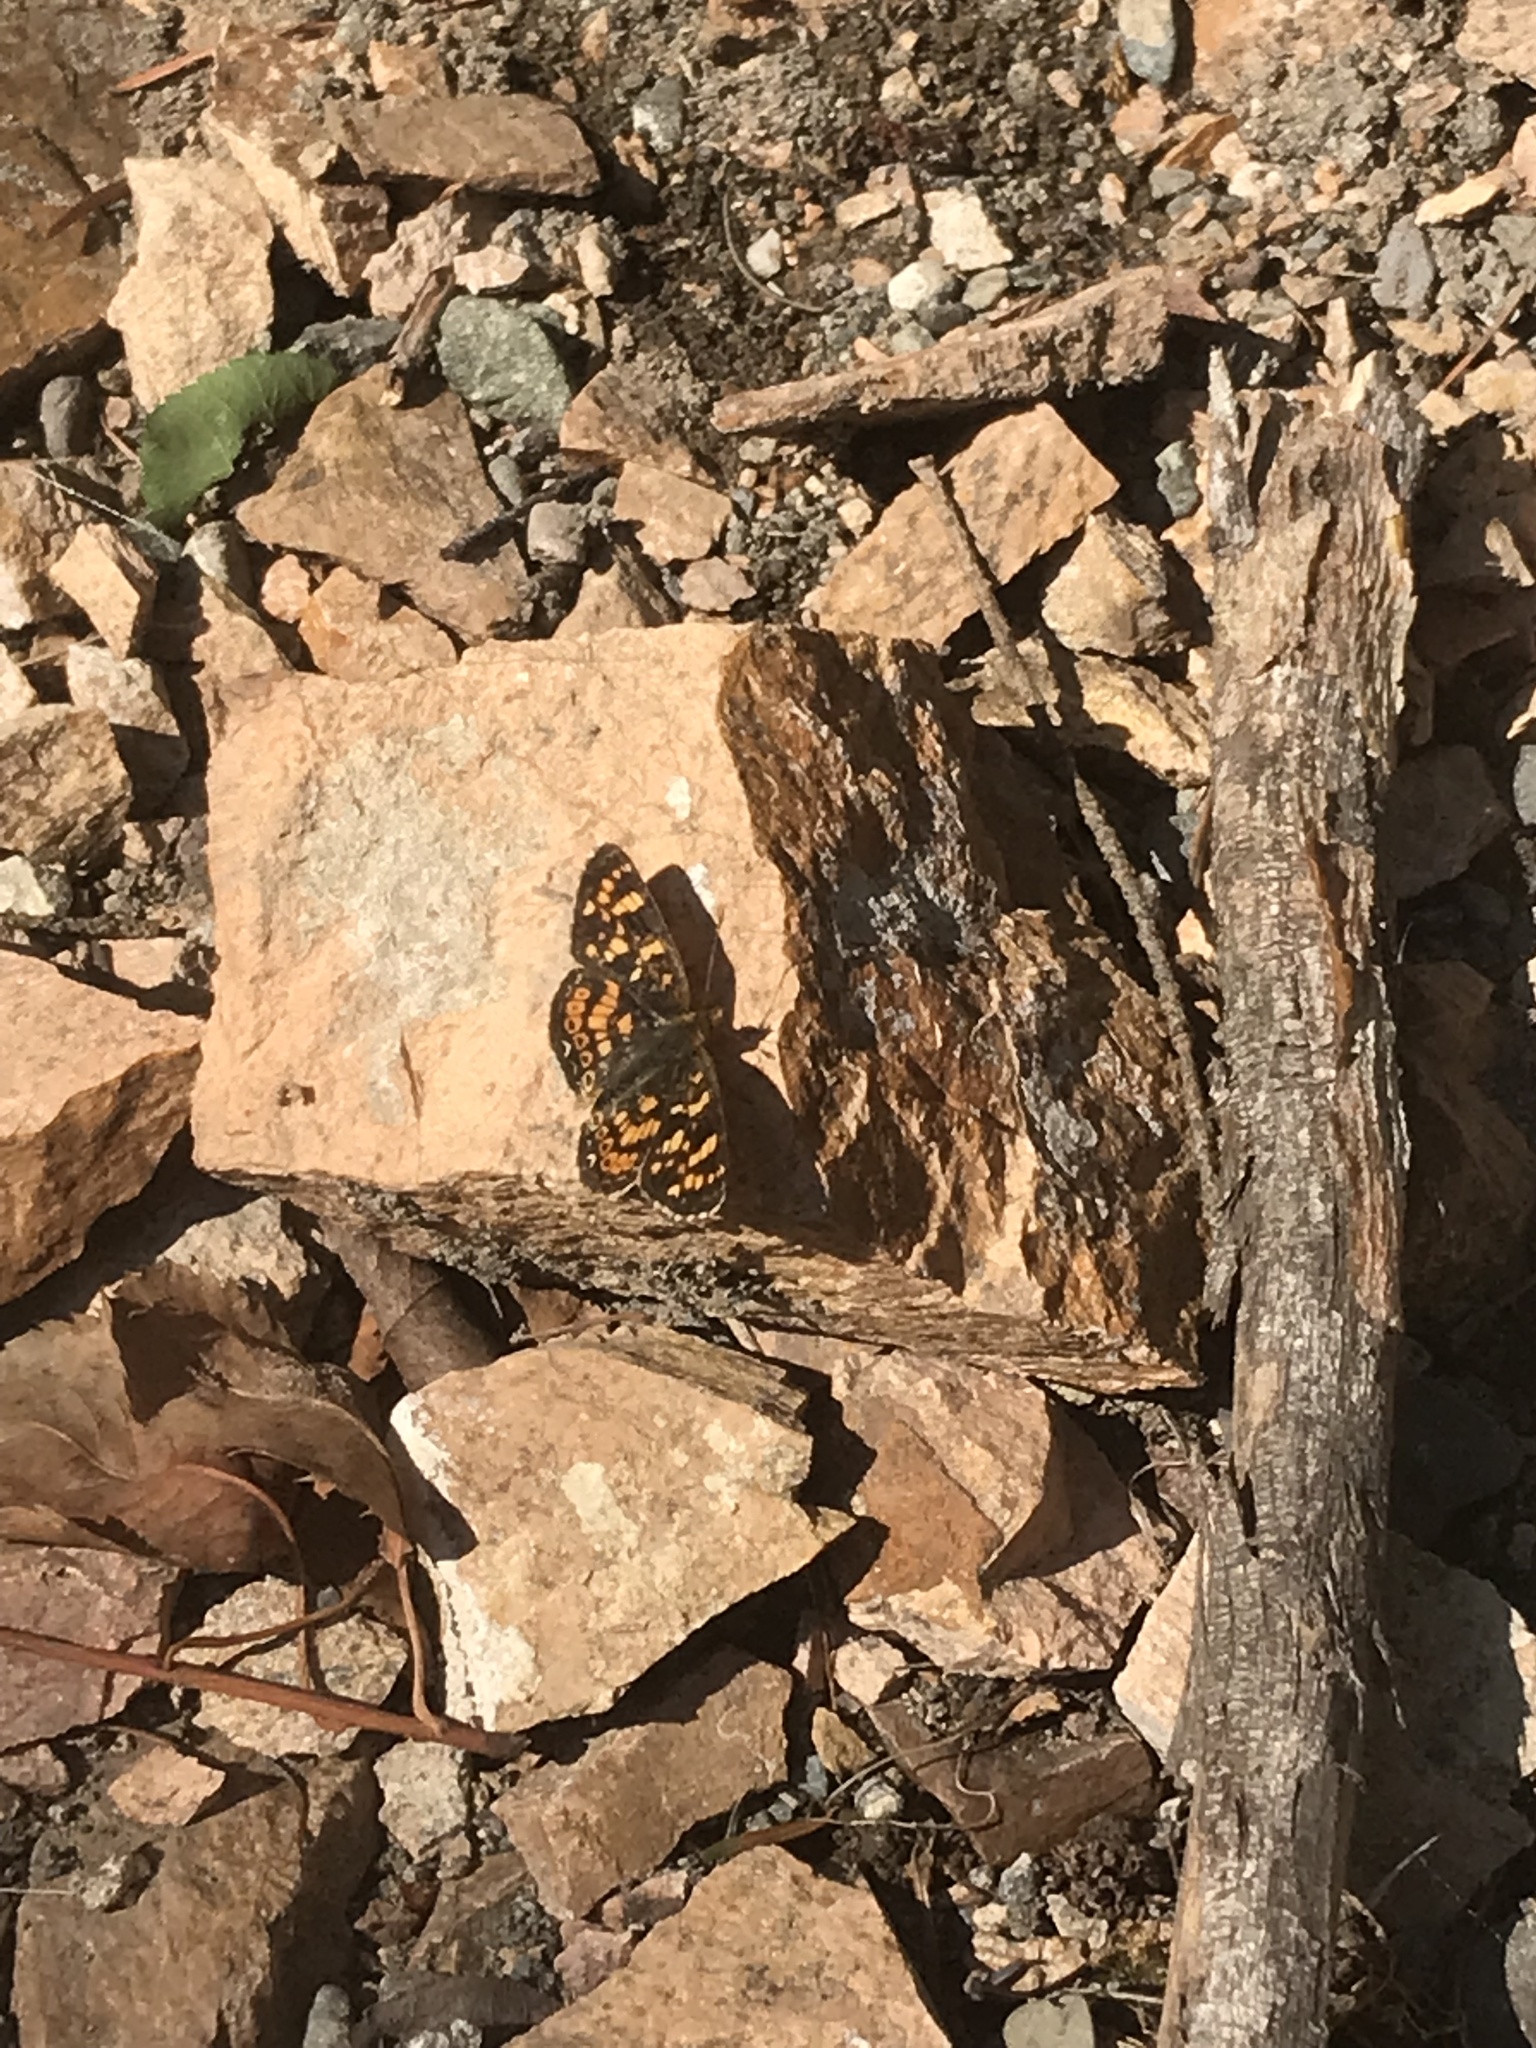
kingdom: Animalia
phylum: Arthropoda
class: Insecta
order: Lepidoptera
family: Nymphalidae
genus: Phyciodes
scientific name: Phyciodes tharos
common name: Pearl crescent
